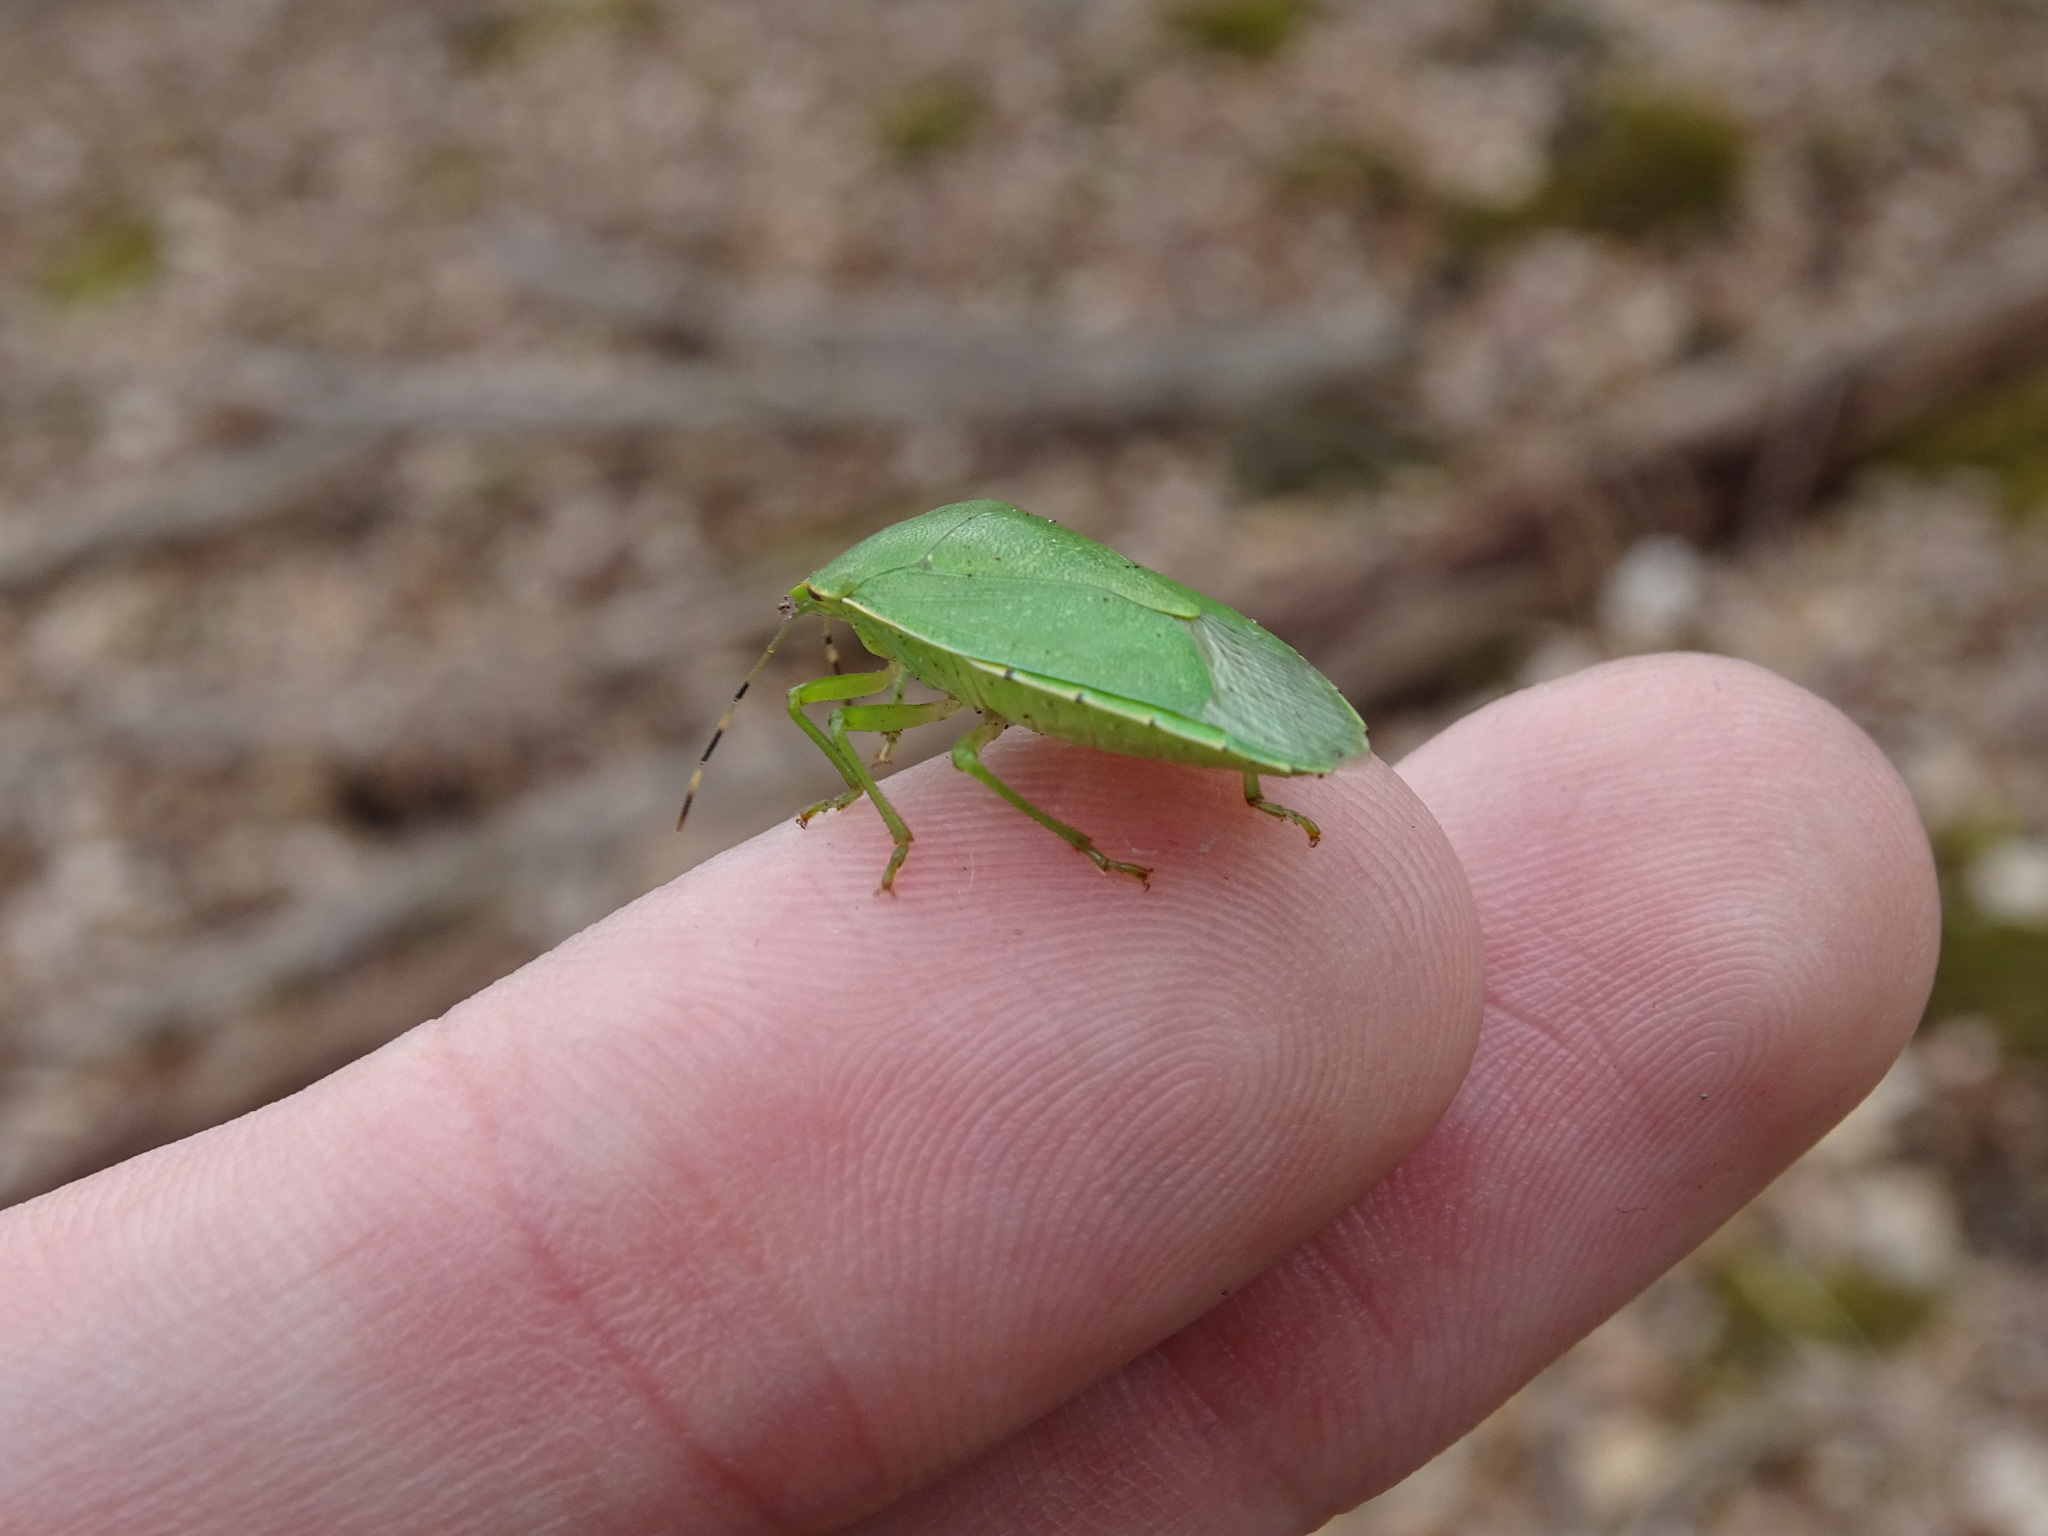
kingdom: Animalia
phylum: Arthropoda
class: Insecta
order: Hemiptera
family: Pentatomidae
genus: Chinavia
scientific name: Chinavia hilaris
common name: Green stink bug
